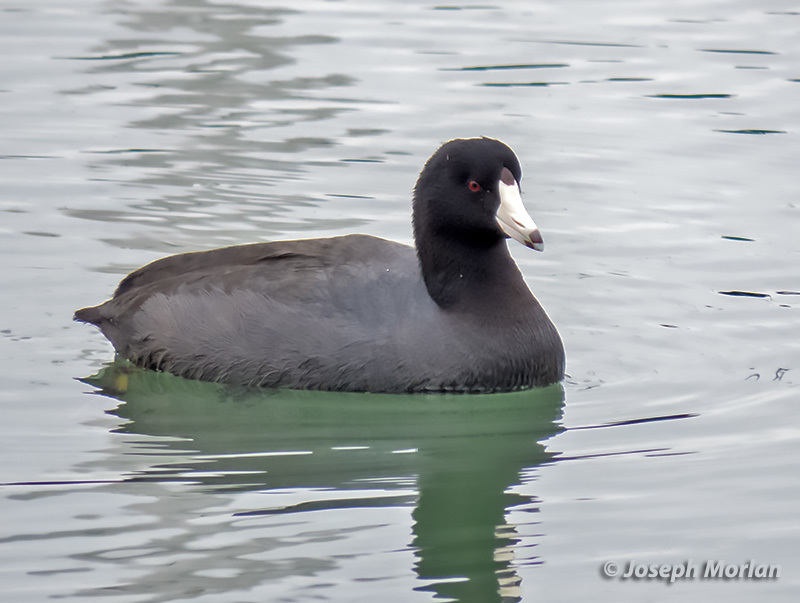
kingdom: Animalia
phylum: Chordata
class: Aves
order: Gruiformes
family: Rallidae
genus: Fulica
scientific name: Fulica americana
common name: American coot
